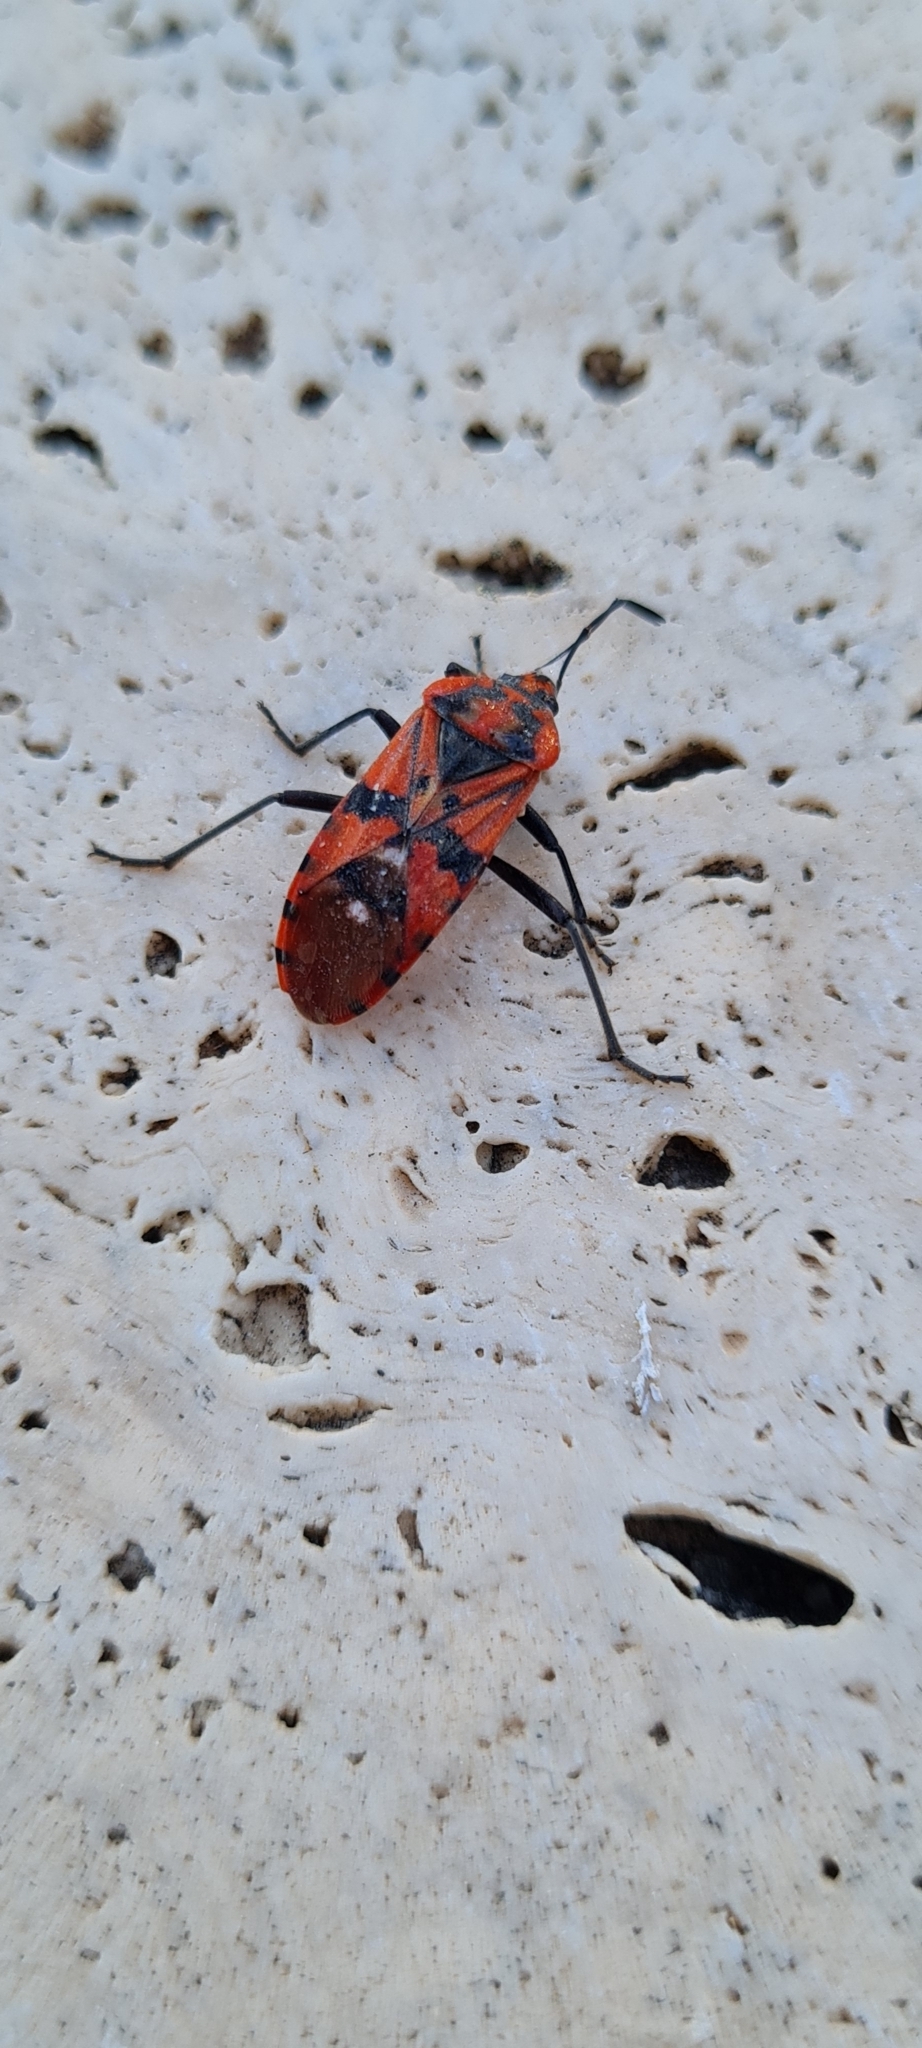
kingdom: Animalia
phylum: Arthropoda
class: Insecta
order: Hemiptera
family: Lygaeidae
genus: Spilostethus
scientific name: Spilostethus pandurus
